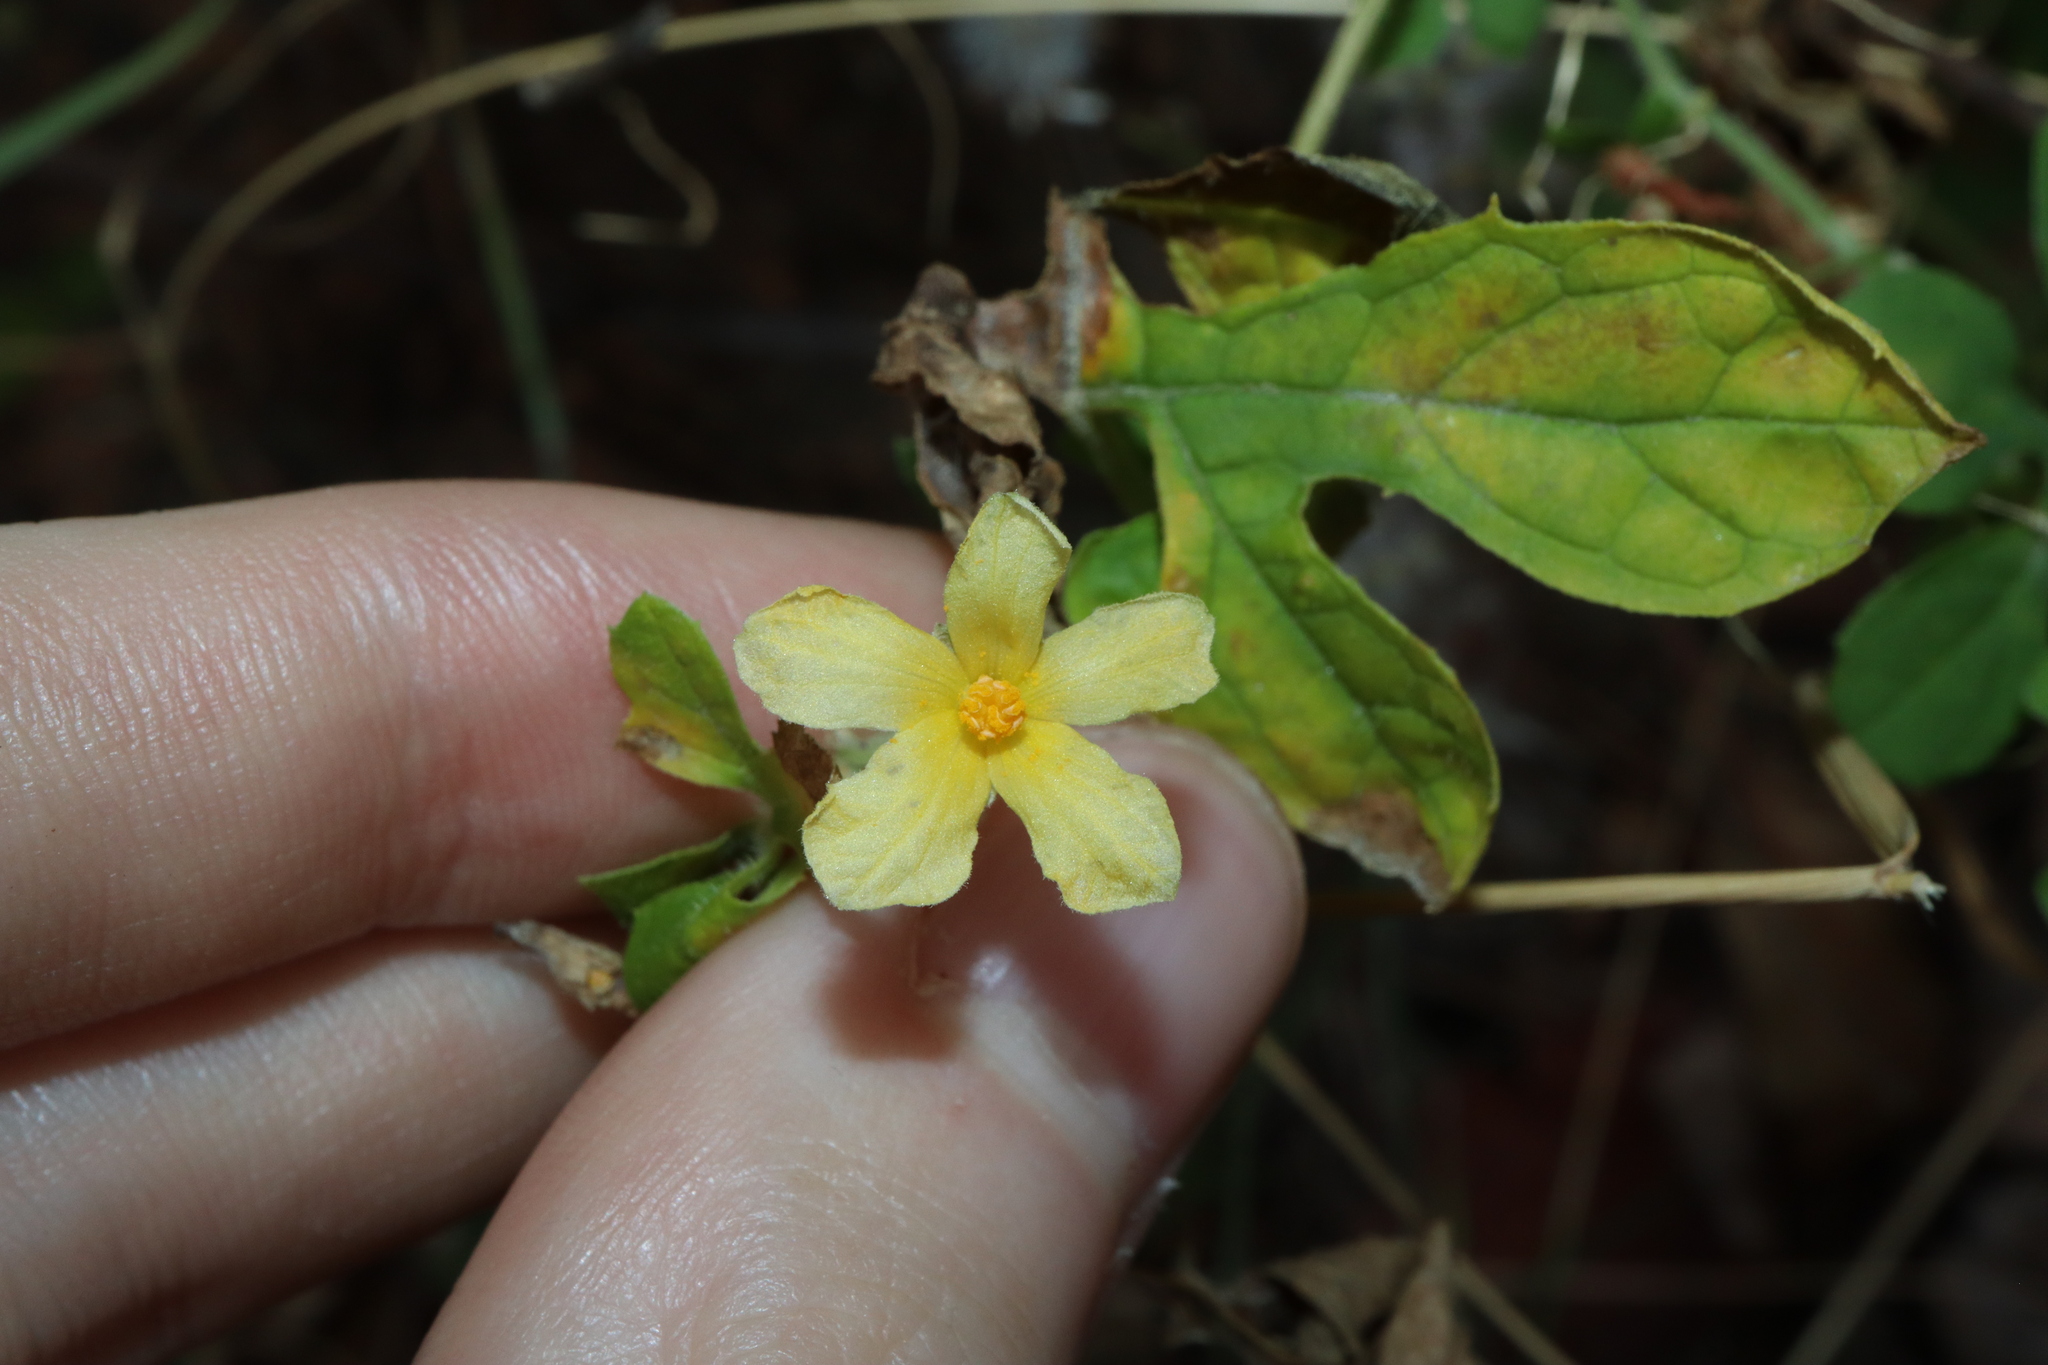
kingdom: Plantae
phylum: Tracheophyta
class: Magnoliopsida
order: Cucurbitales
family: Cucurbitaceae
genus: Momordica
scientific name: Momordica charantia
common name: Balsampear
